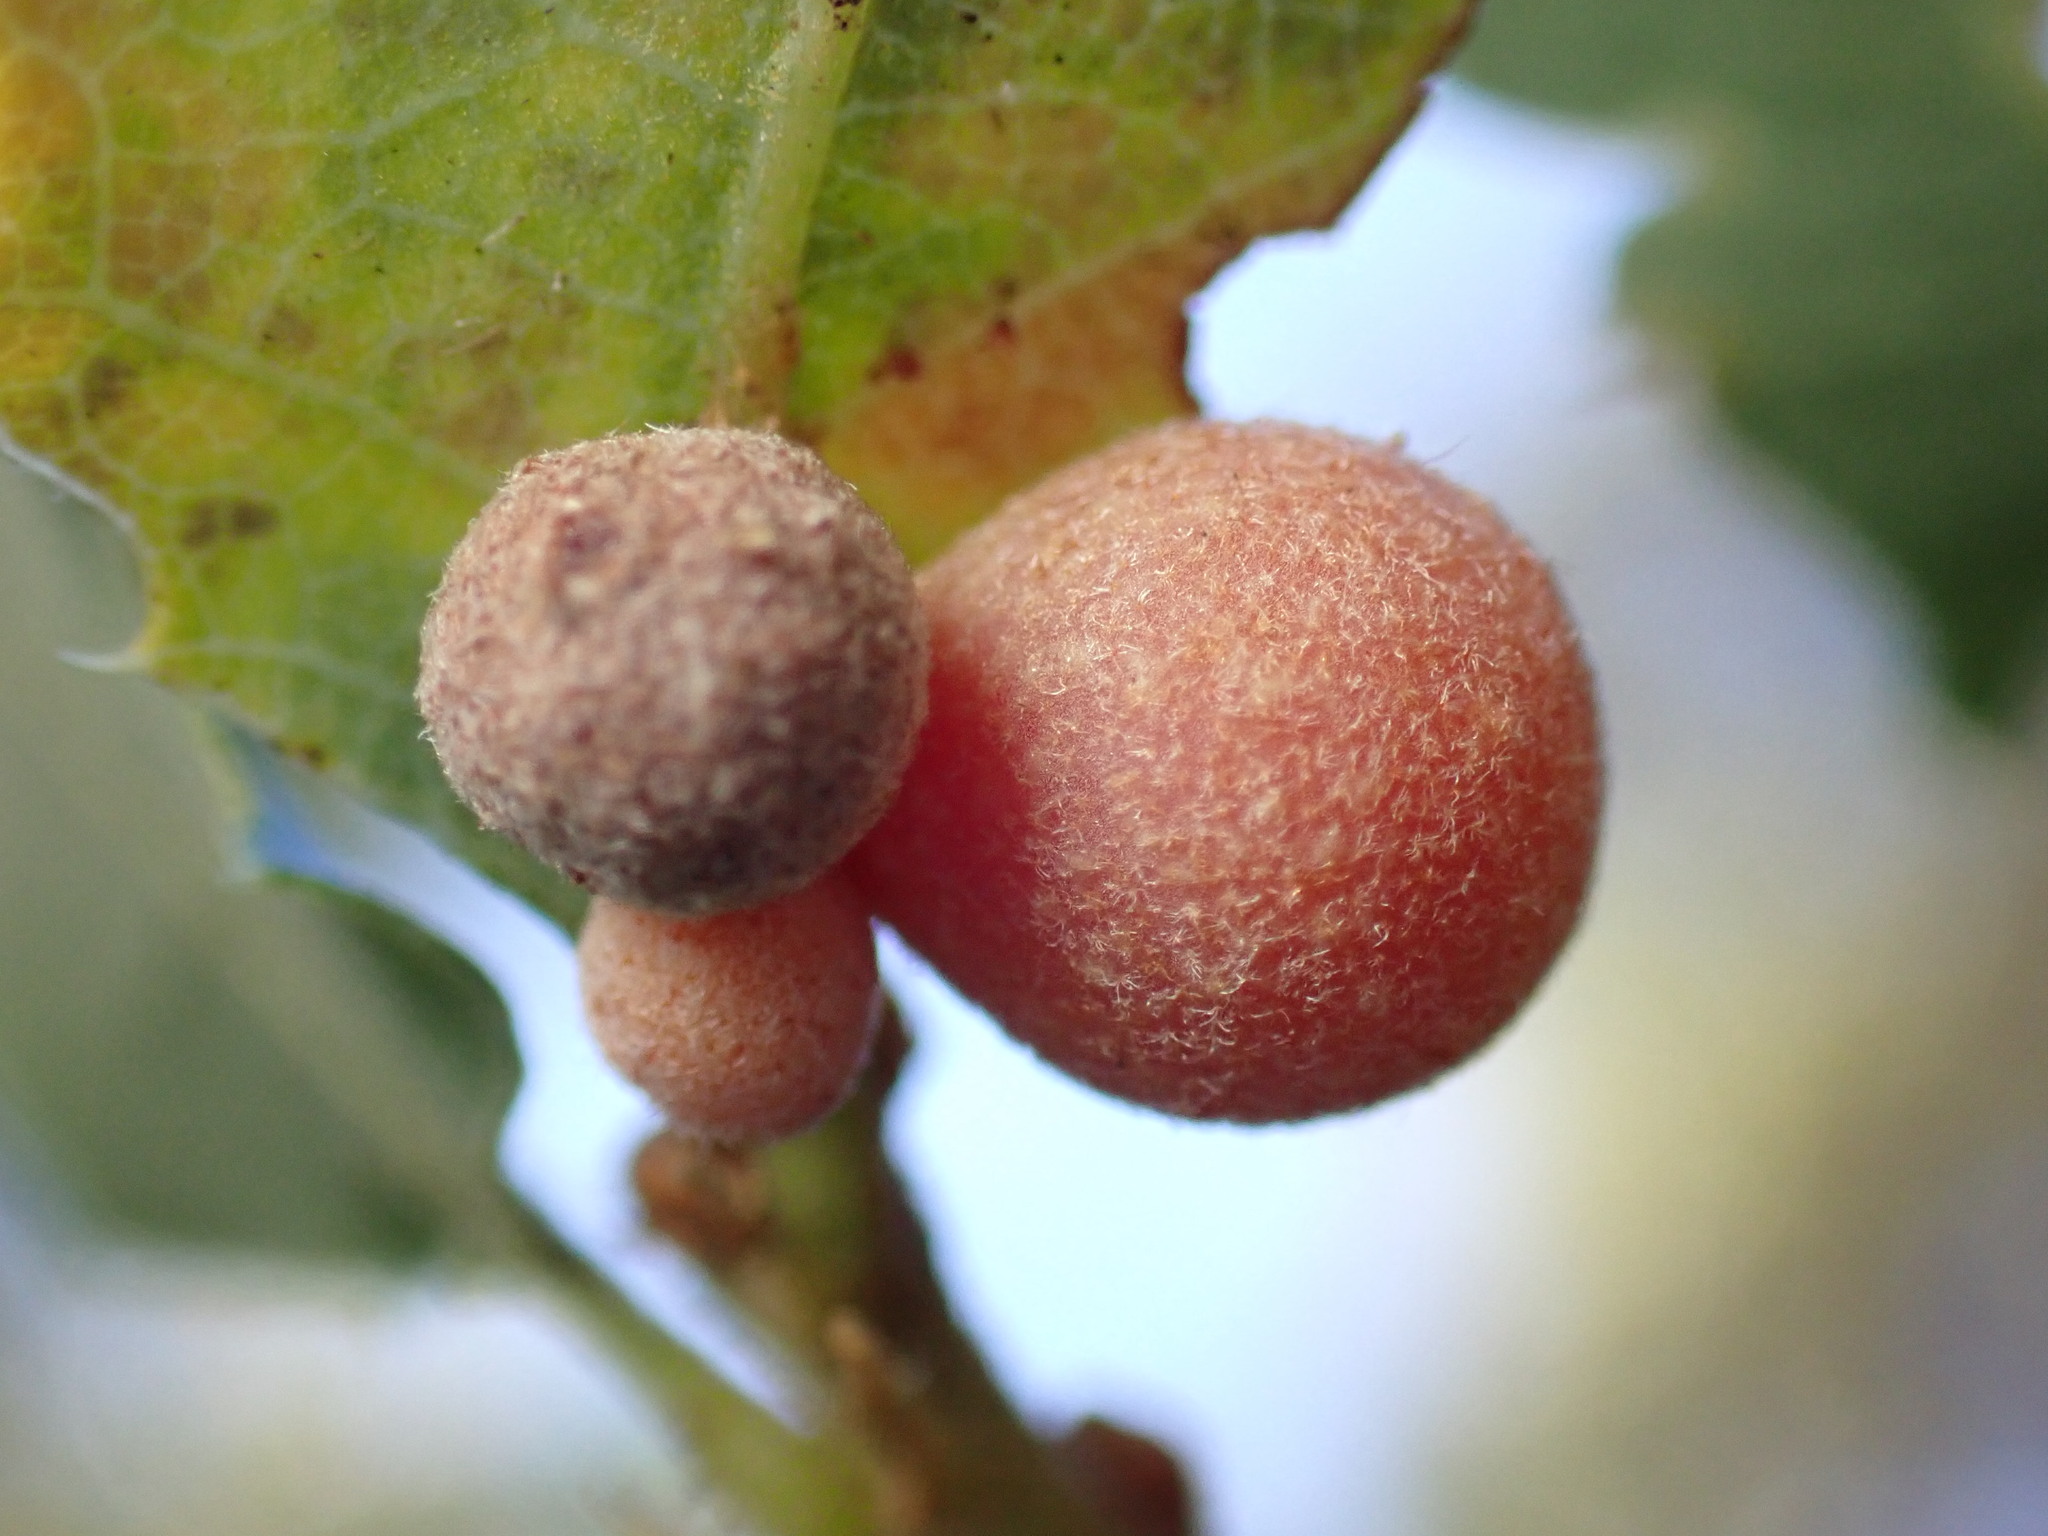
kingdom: Animalia
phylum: Arthropoda
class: Insecta
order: Hymenoptera
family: Cynipidae
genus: Andricus
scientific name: Andricus
